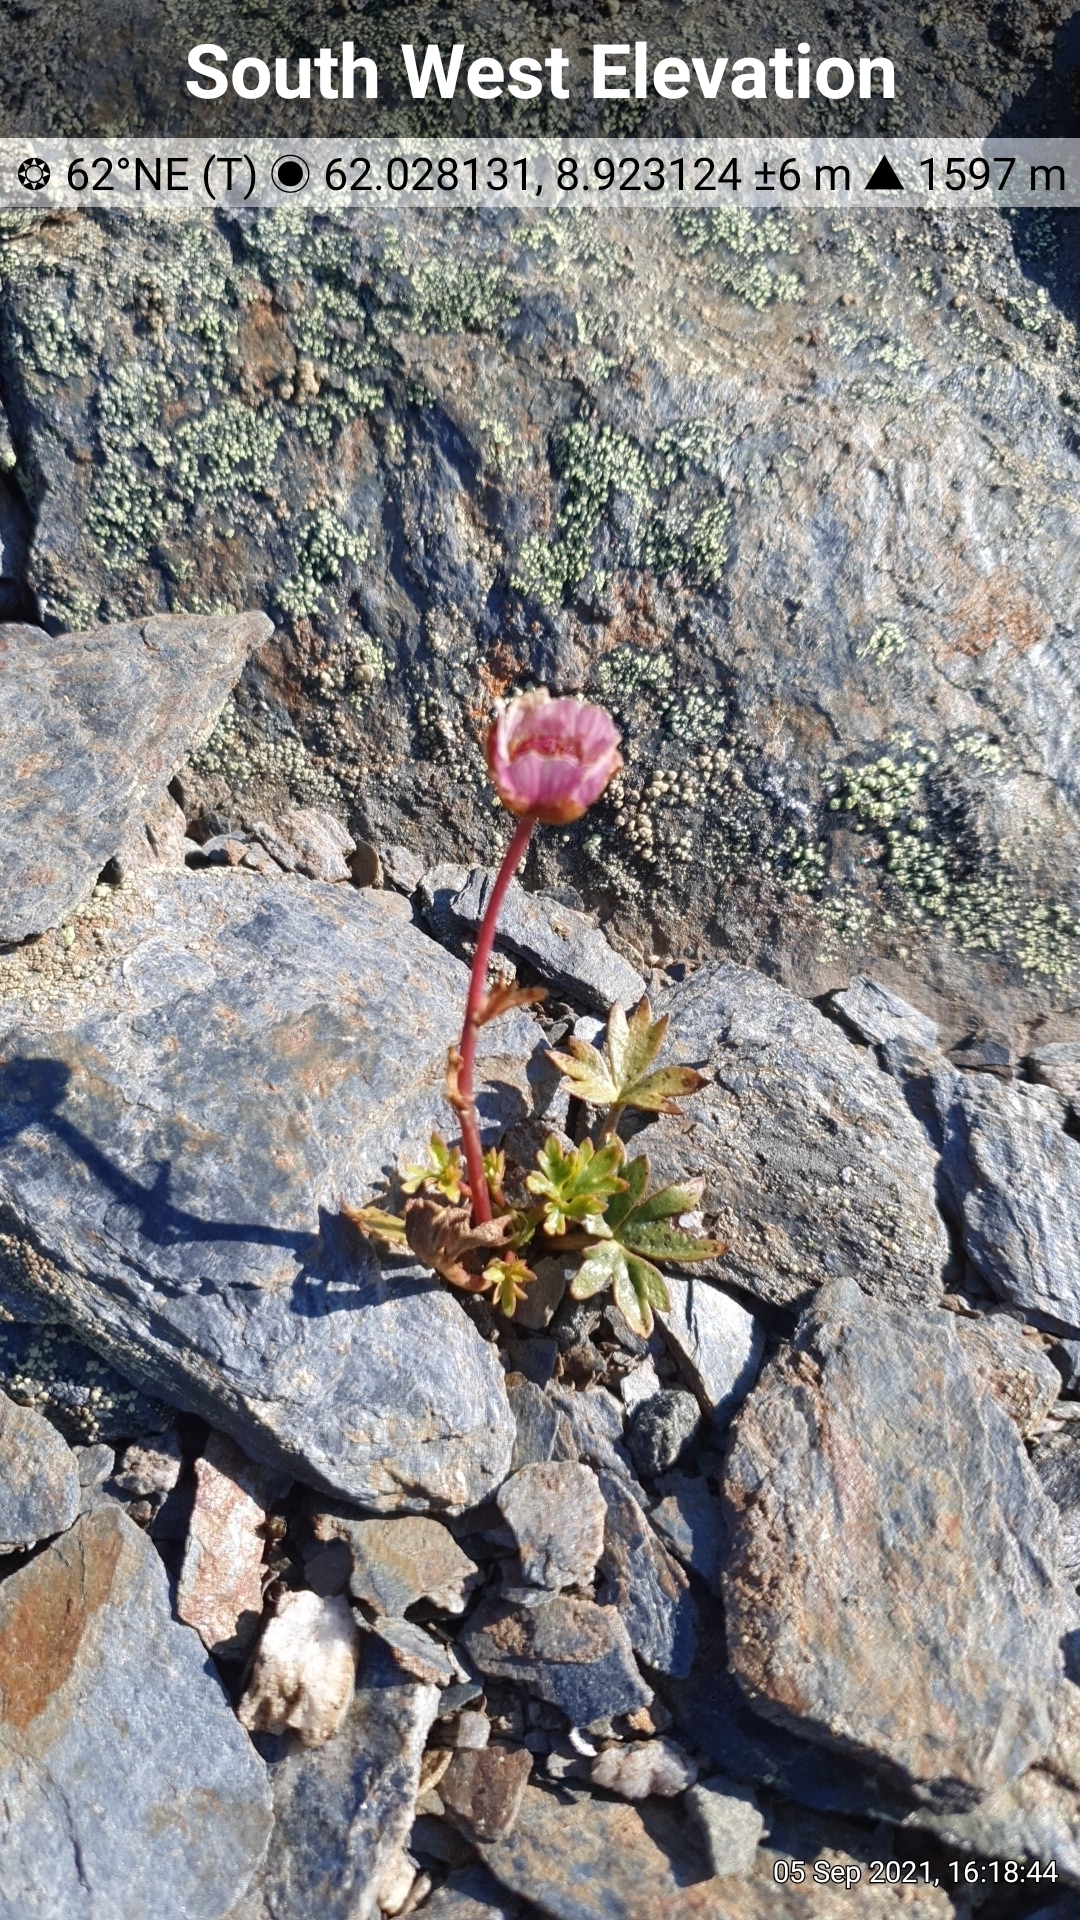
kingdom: Plantae
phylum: Tracheophyta
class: Magnoliopsida
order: Ranunculales
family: Ranunculaceae
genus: Ranunculus
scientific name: Ranunculus glacialis
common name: Glacier buttercup
